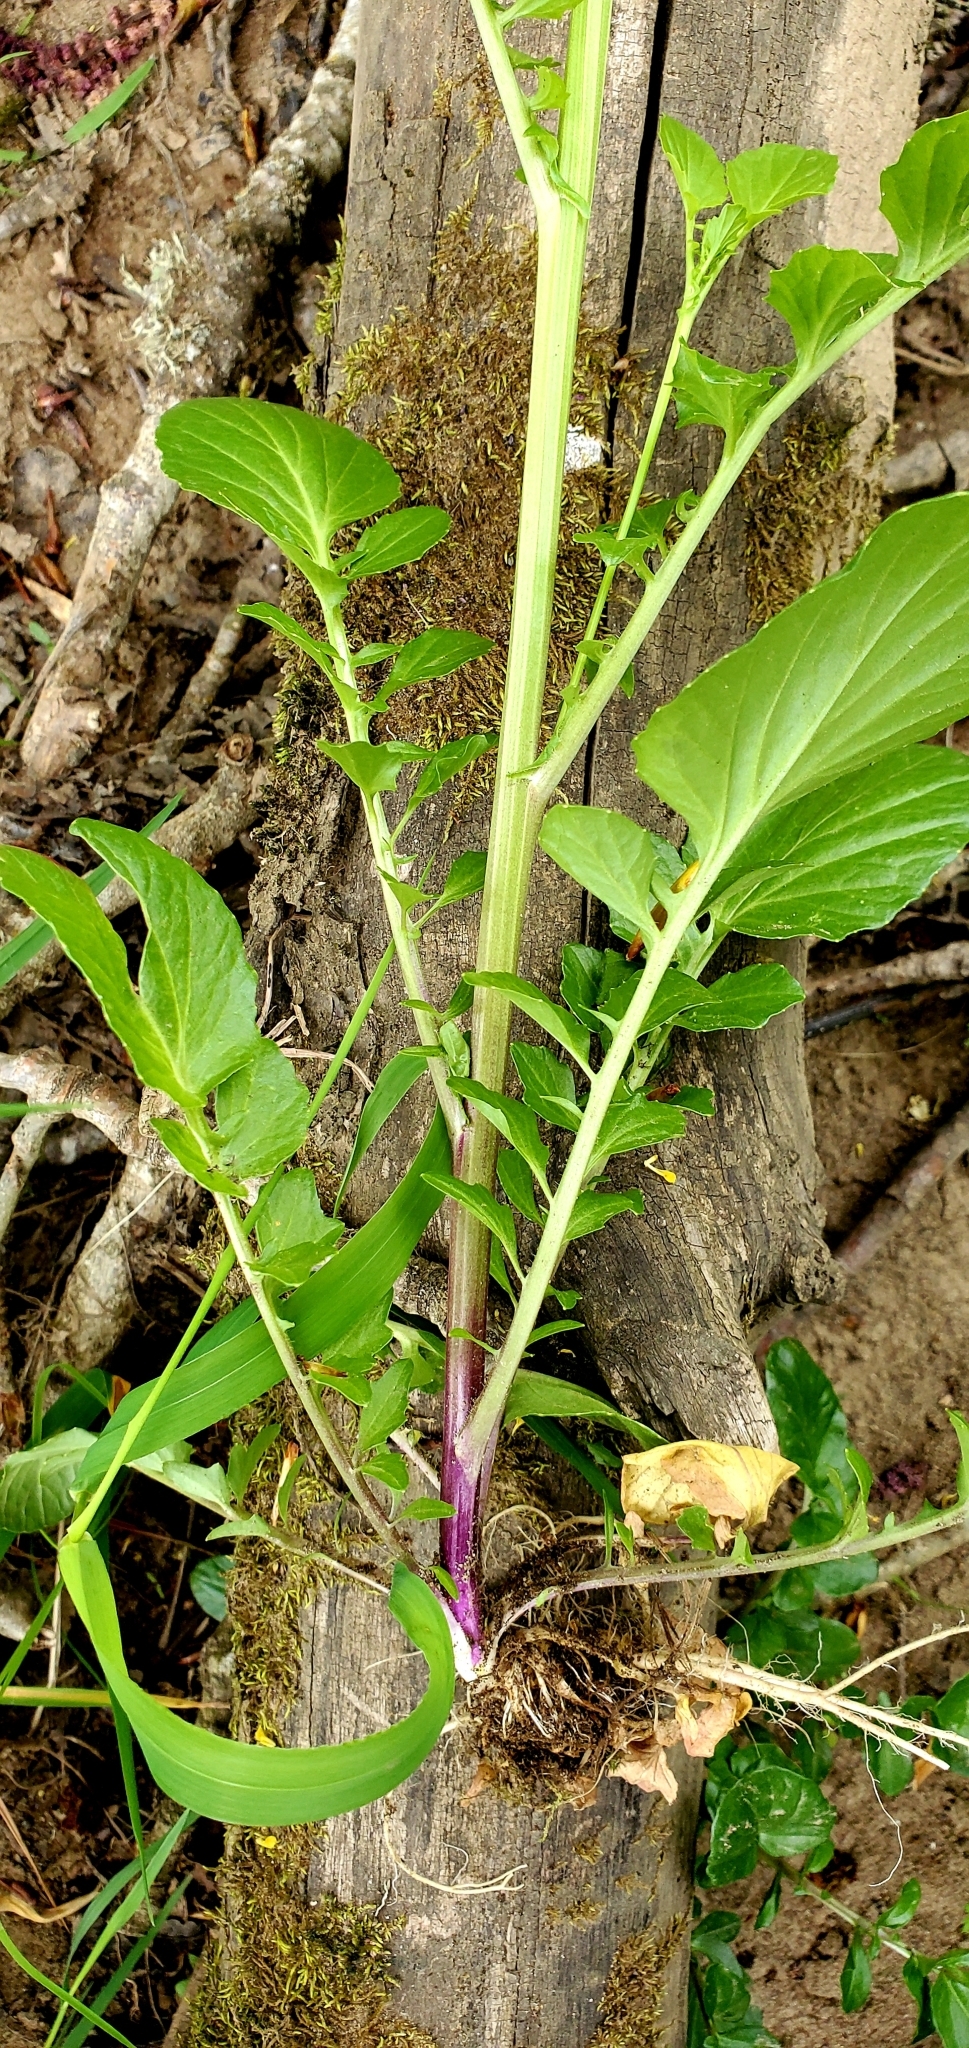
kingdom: Plantae
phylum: Tracheophyta
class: Magnoliopsida
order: Brassicales
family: Brassicaceae
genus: Barbarea
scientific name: Barbarea orthoceras
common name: American wintercress
